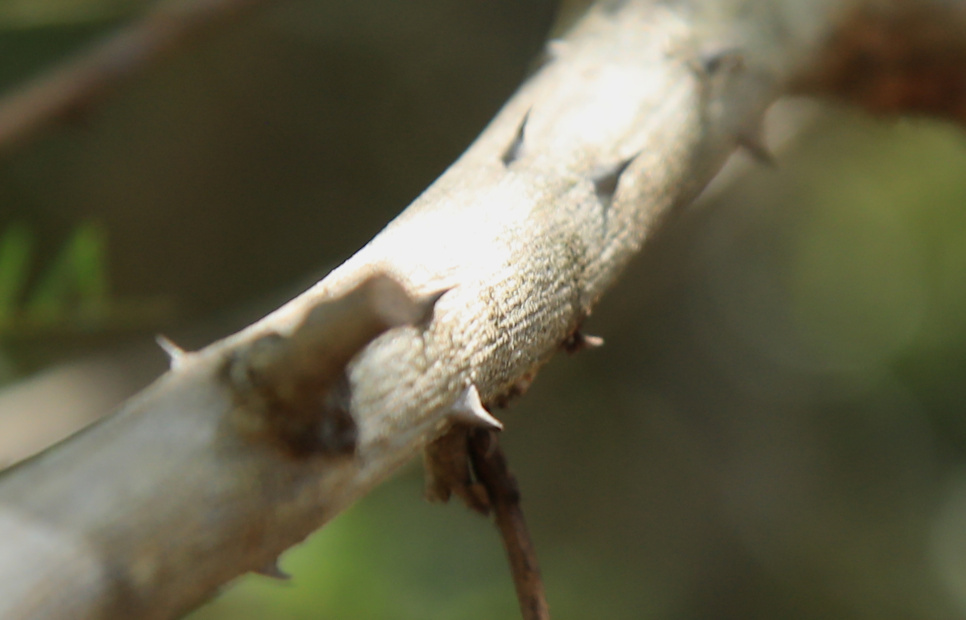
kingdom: Plantae
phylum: Tracheophyta
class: Magnoliopsida
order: Fabales
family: Fabaceae
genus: Senegalia
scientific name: Senegalia ataxacantha
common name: Flame acacia
